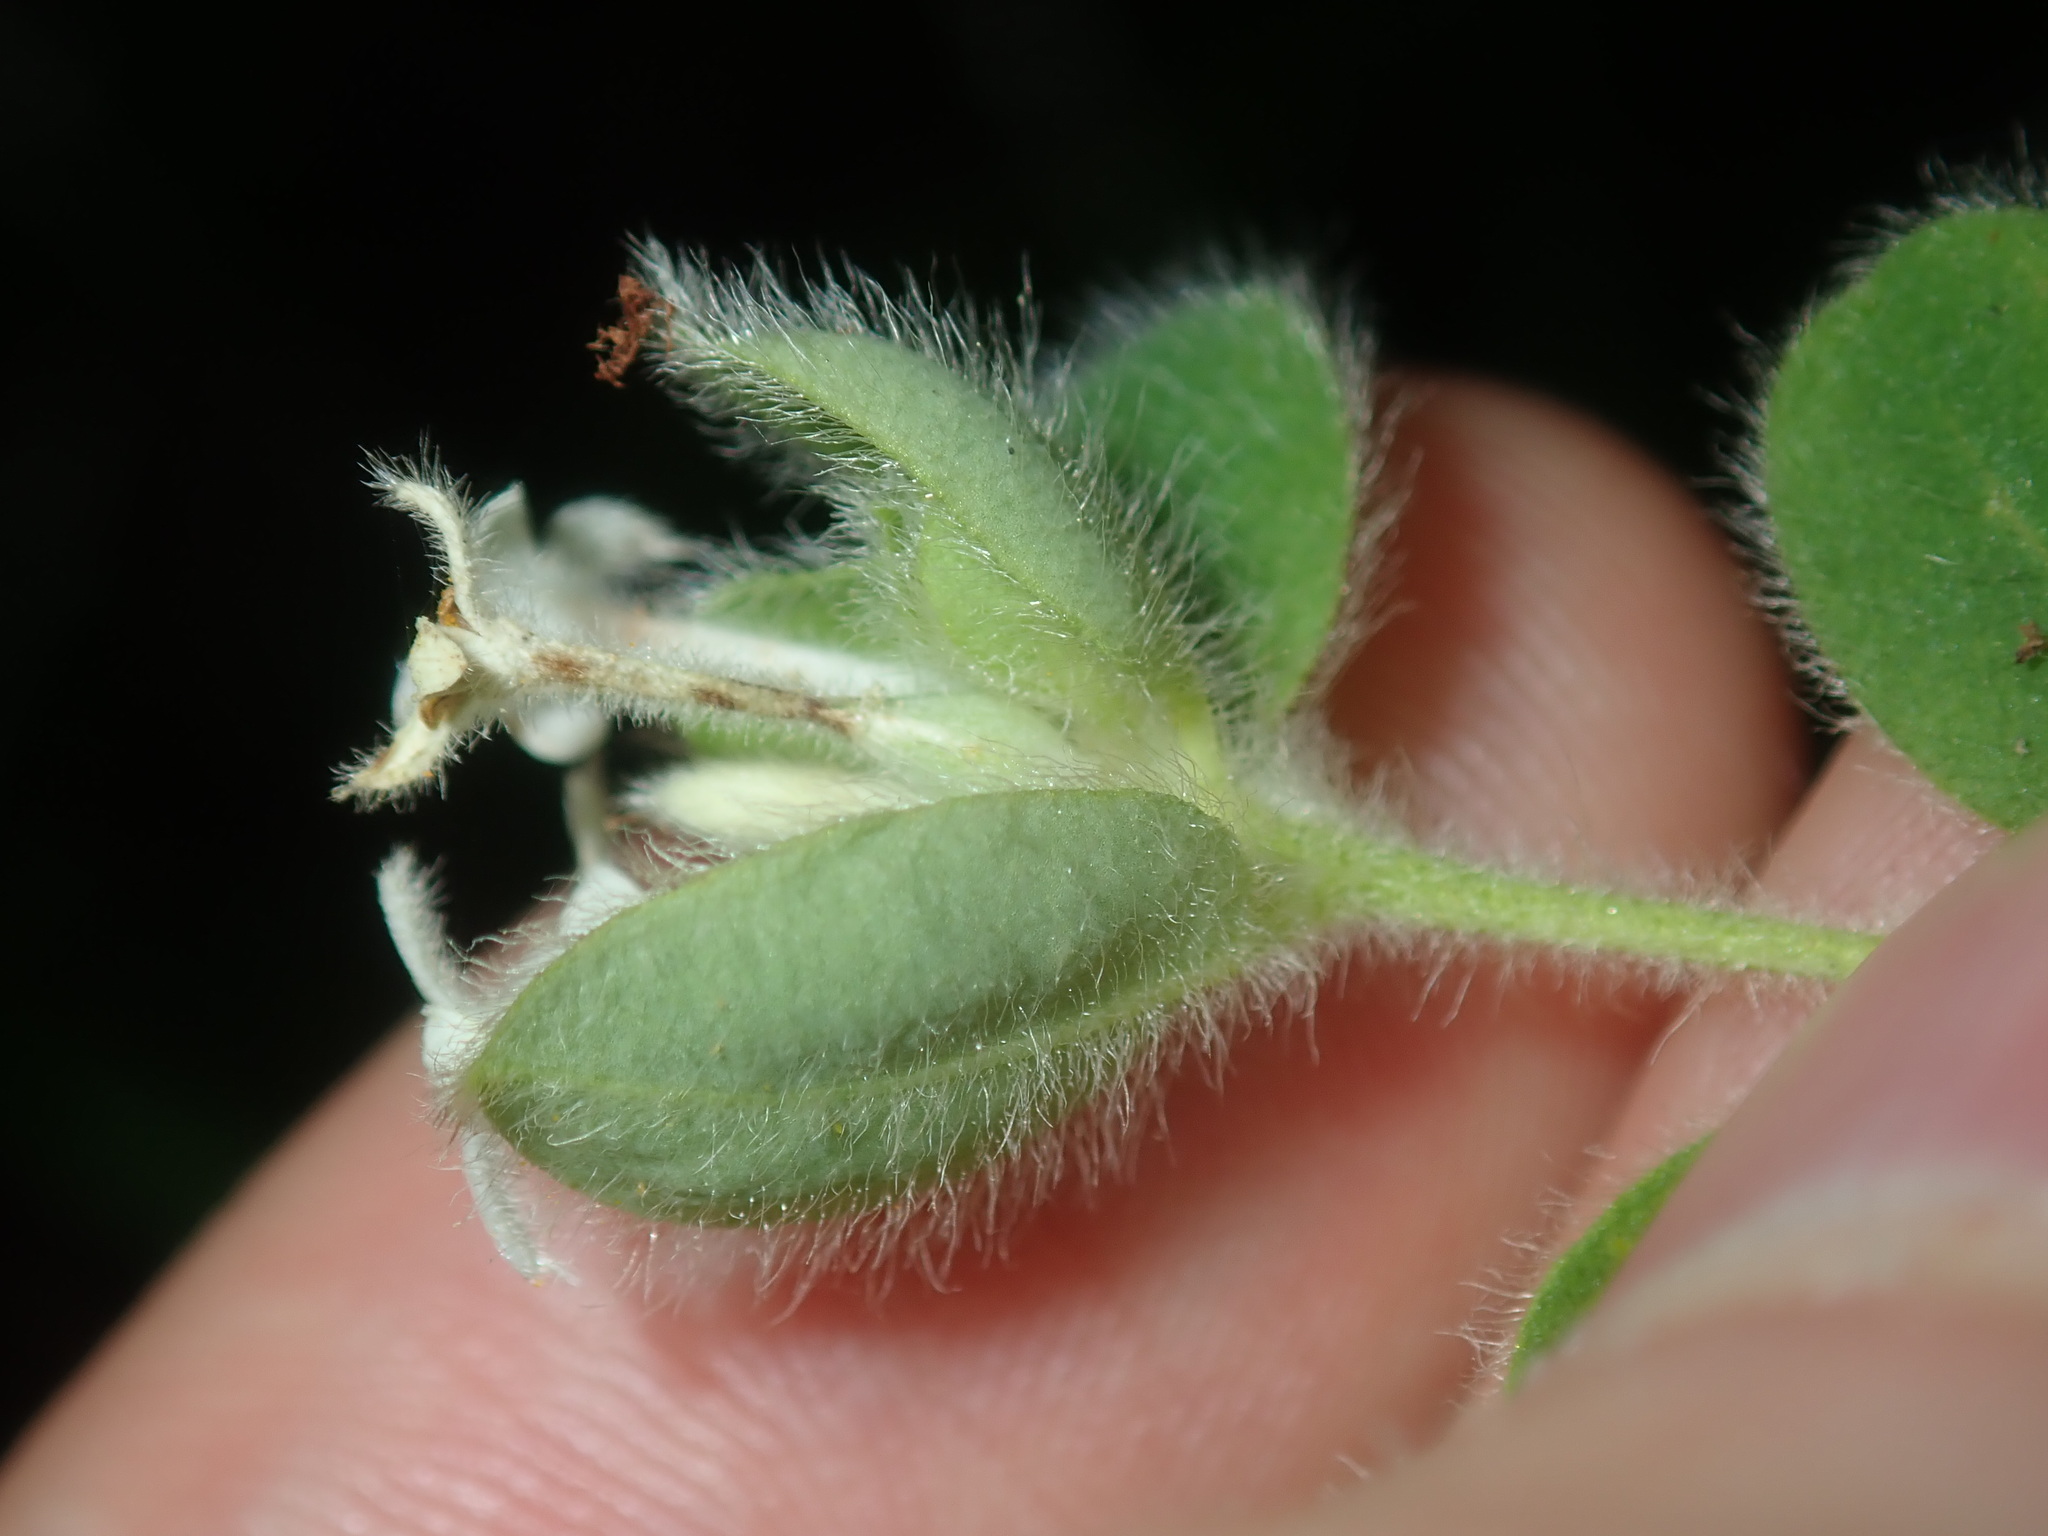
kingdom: Plantae
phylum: Tracheophyta
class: Magnoliopsida
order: Malvales
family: Thymelaeaceae
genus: Pimelea
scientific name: Pimelea altior
